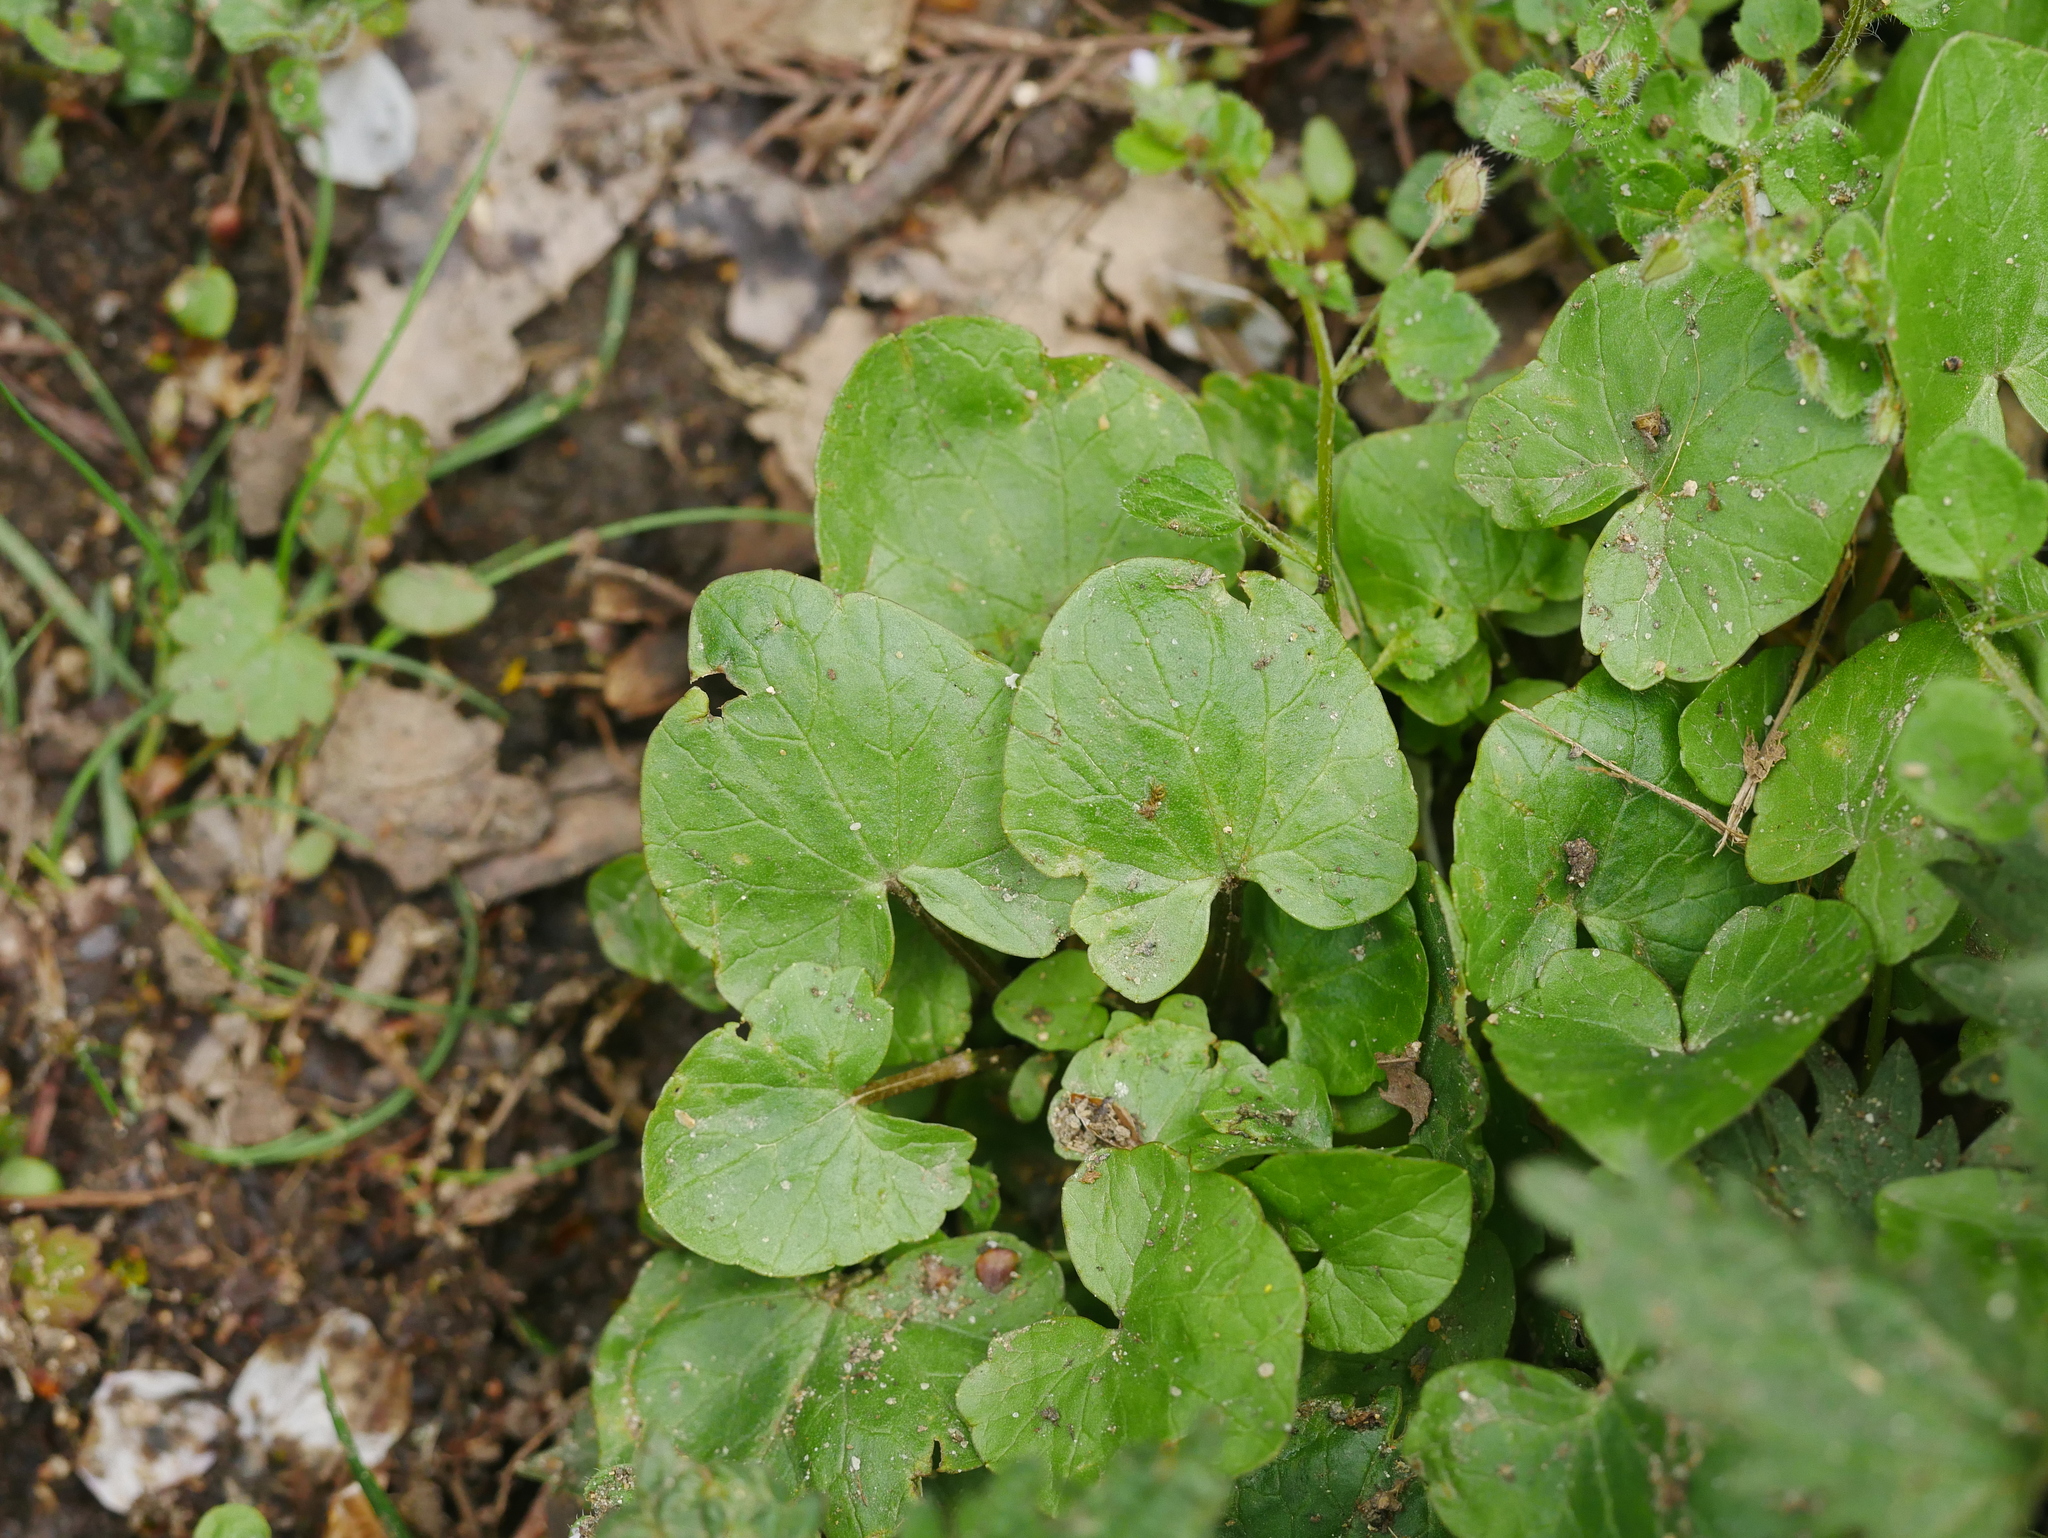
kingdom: Plantae
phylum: Tracheophyta
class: Magnoliopsida
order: Ranunculales
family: Ranunculaceae
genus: Ficaria
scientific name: Ficaria verna
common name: Lesser celandine
